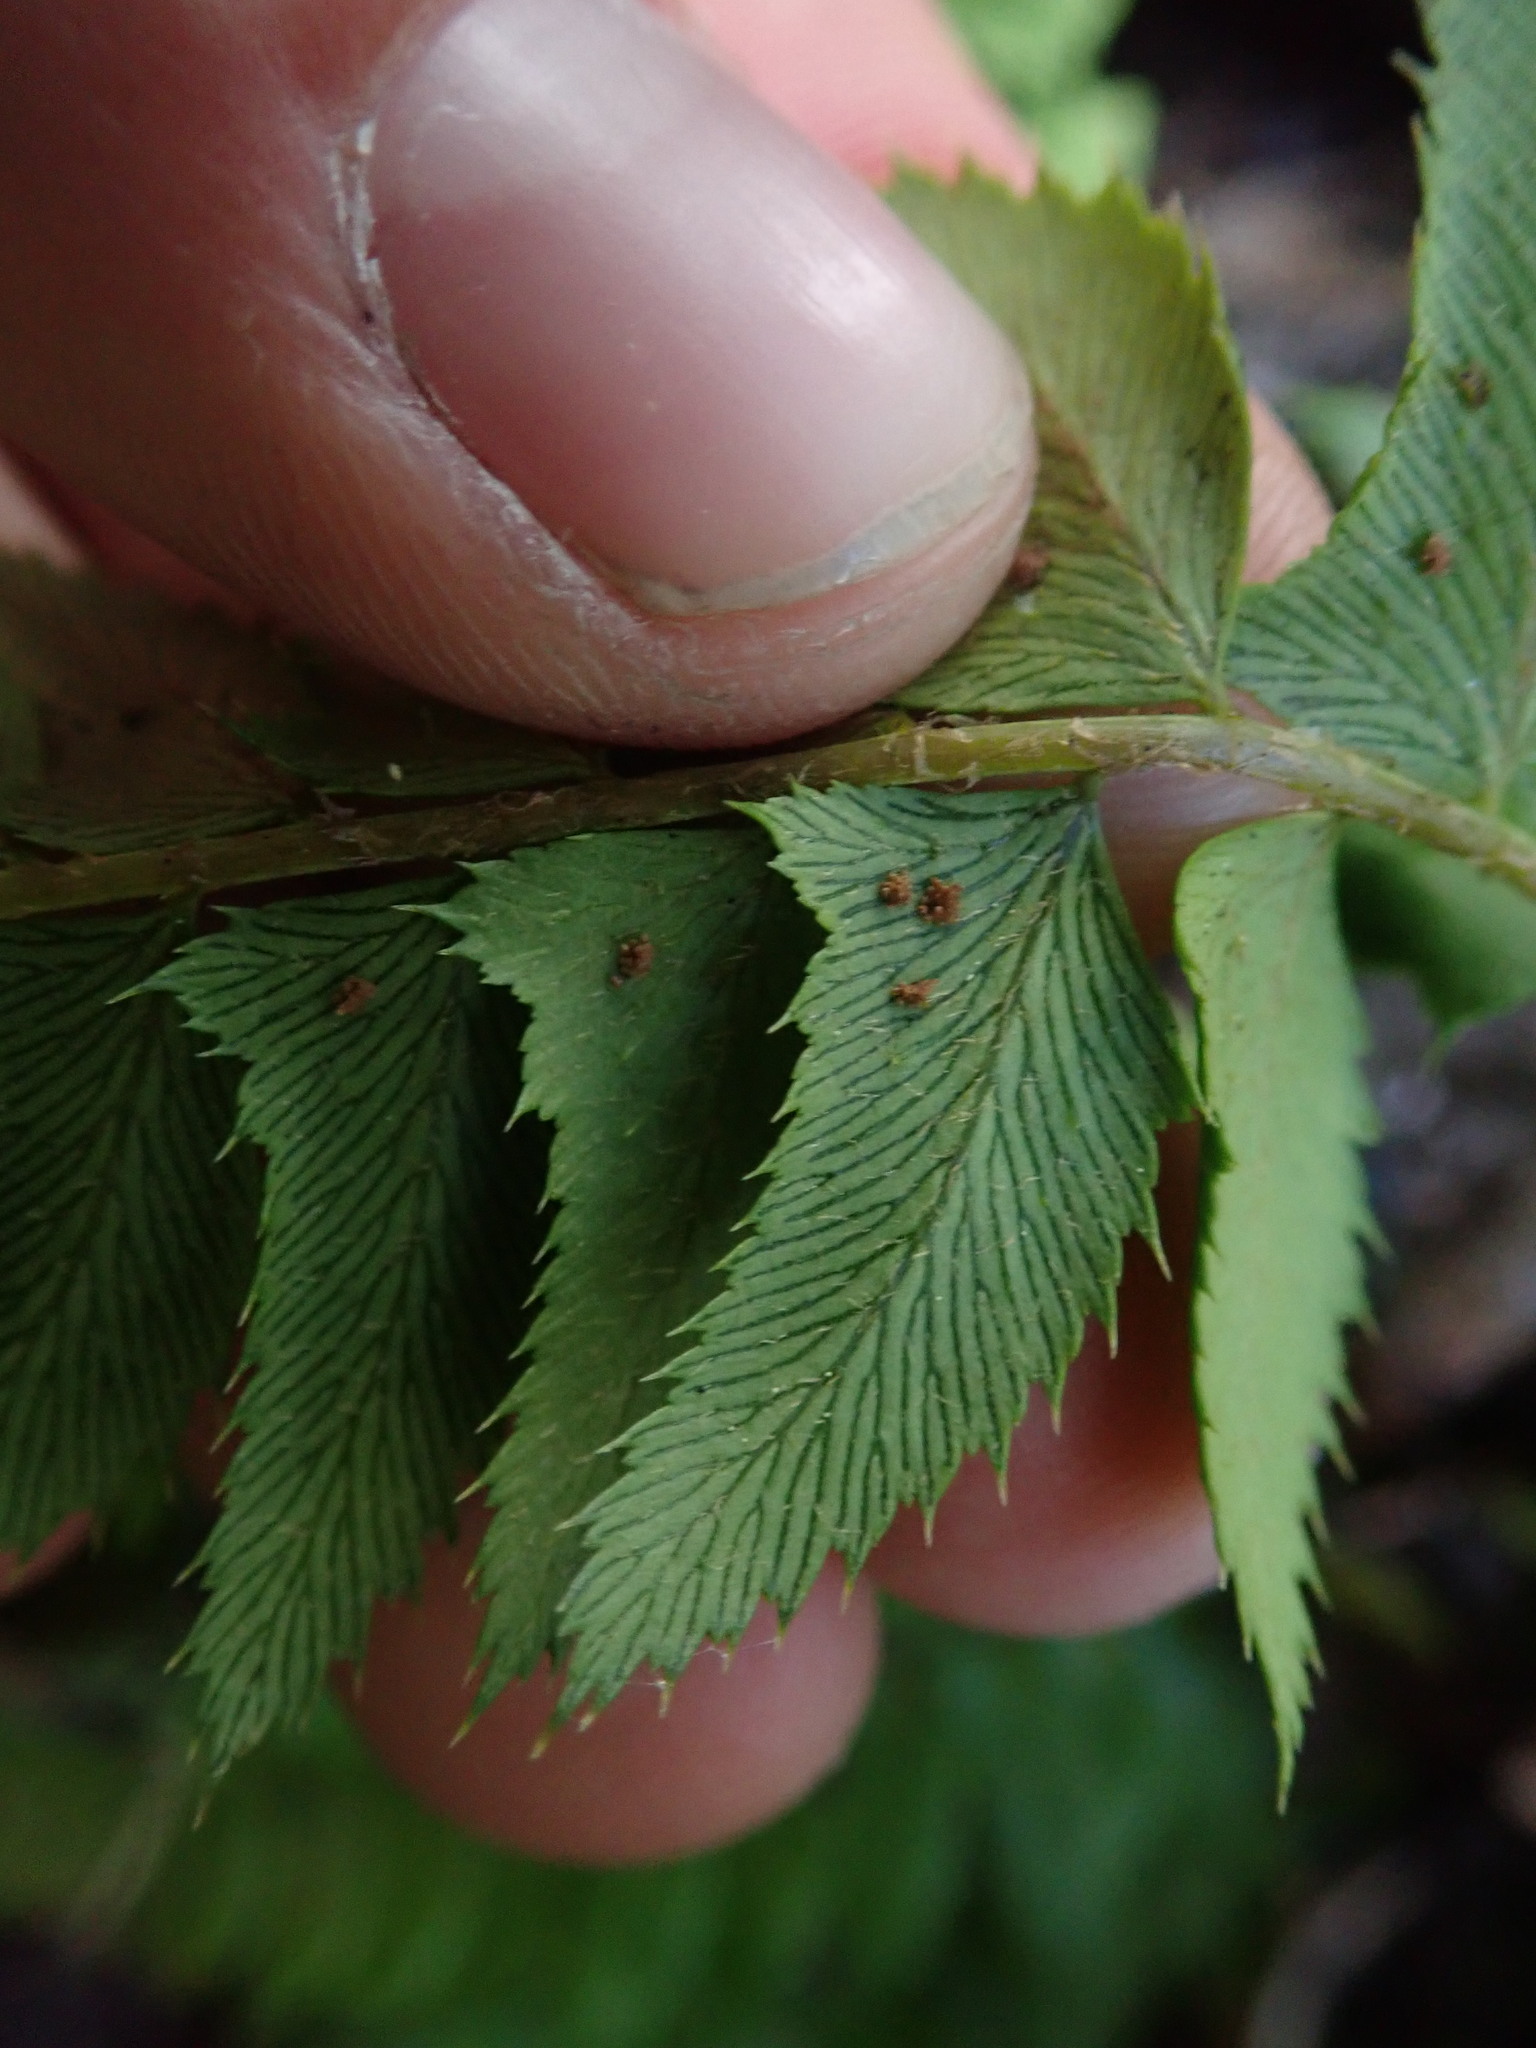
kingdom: Plantae
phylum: Tracheophyta
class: Polypodiopsida
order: Polypodiales
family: Dryopteridaceae
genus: Polystichum
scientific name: Polystichum lonchitis
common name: Holly fern
